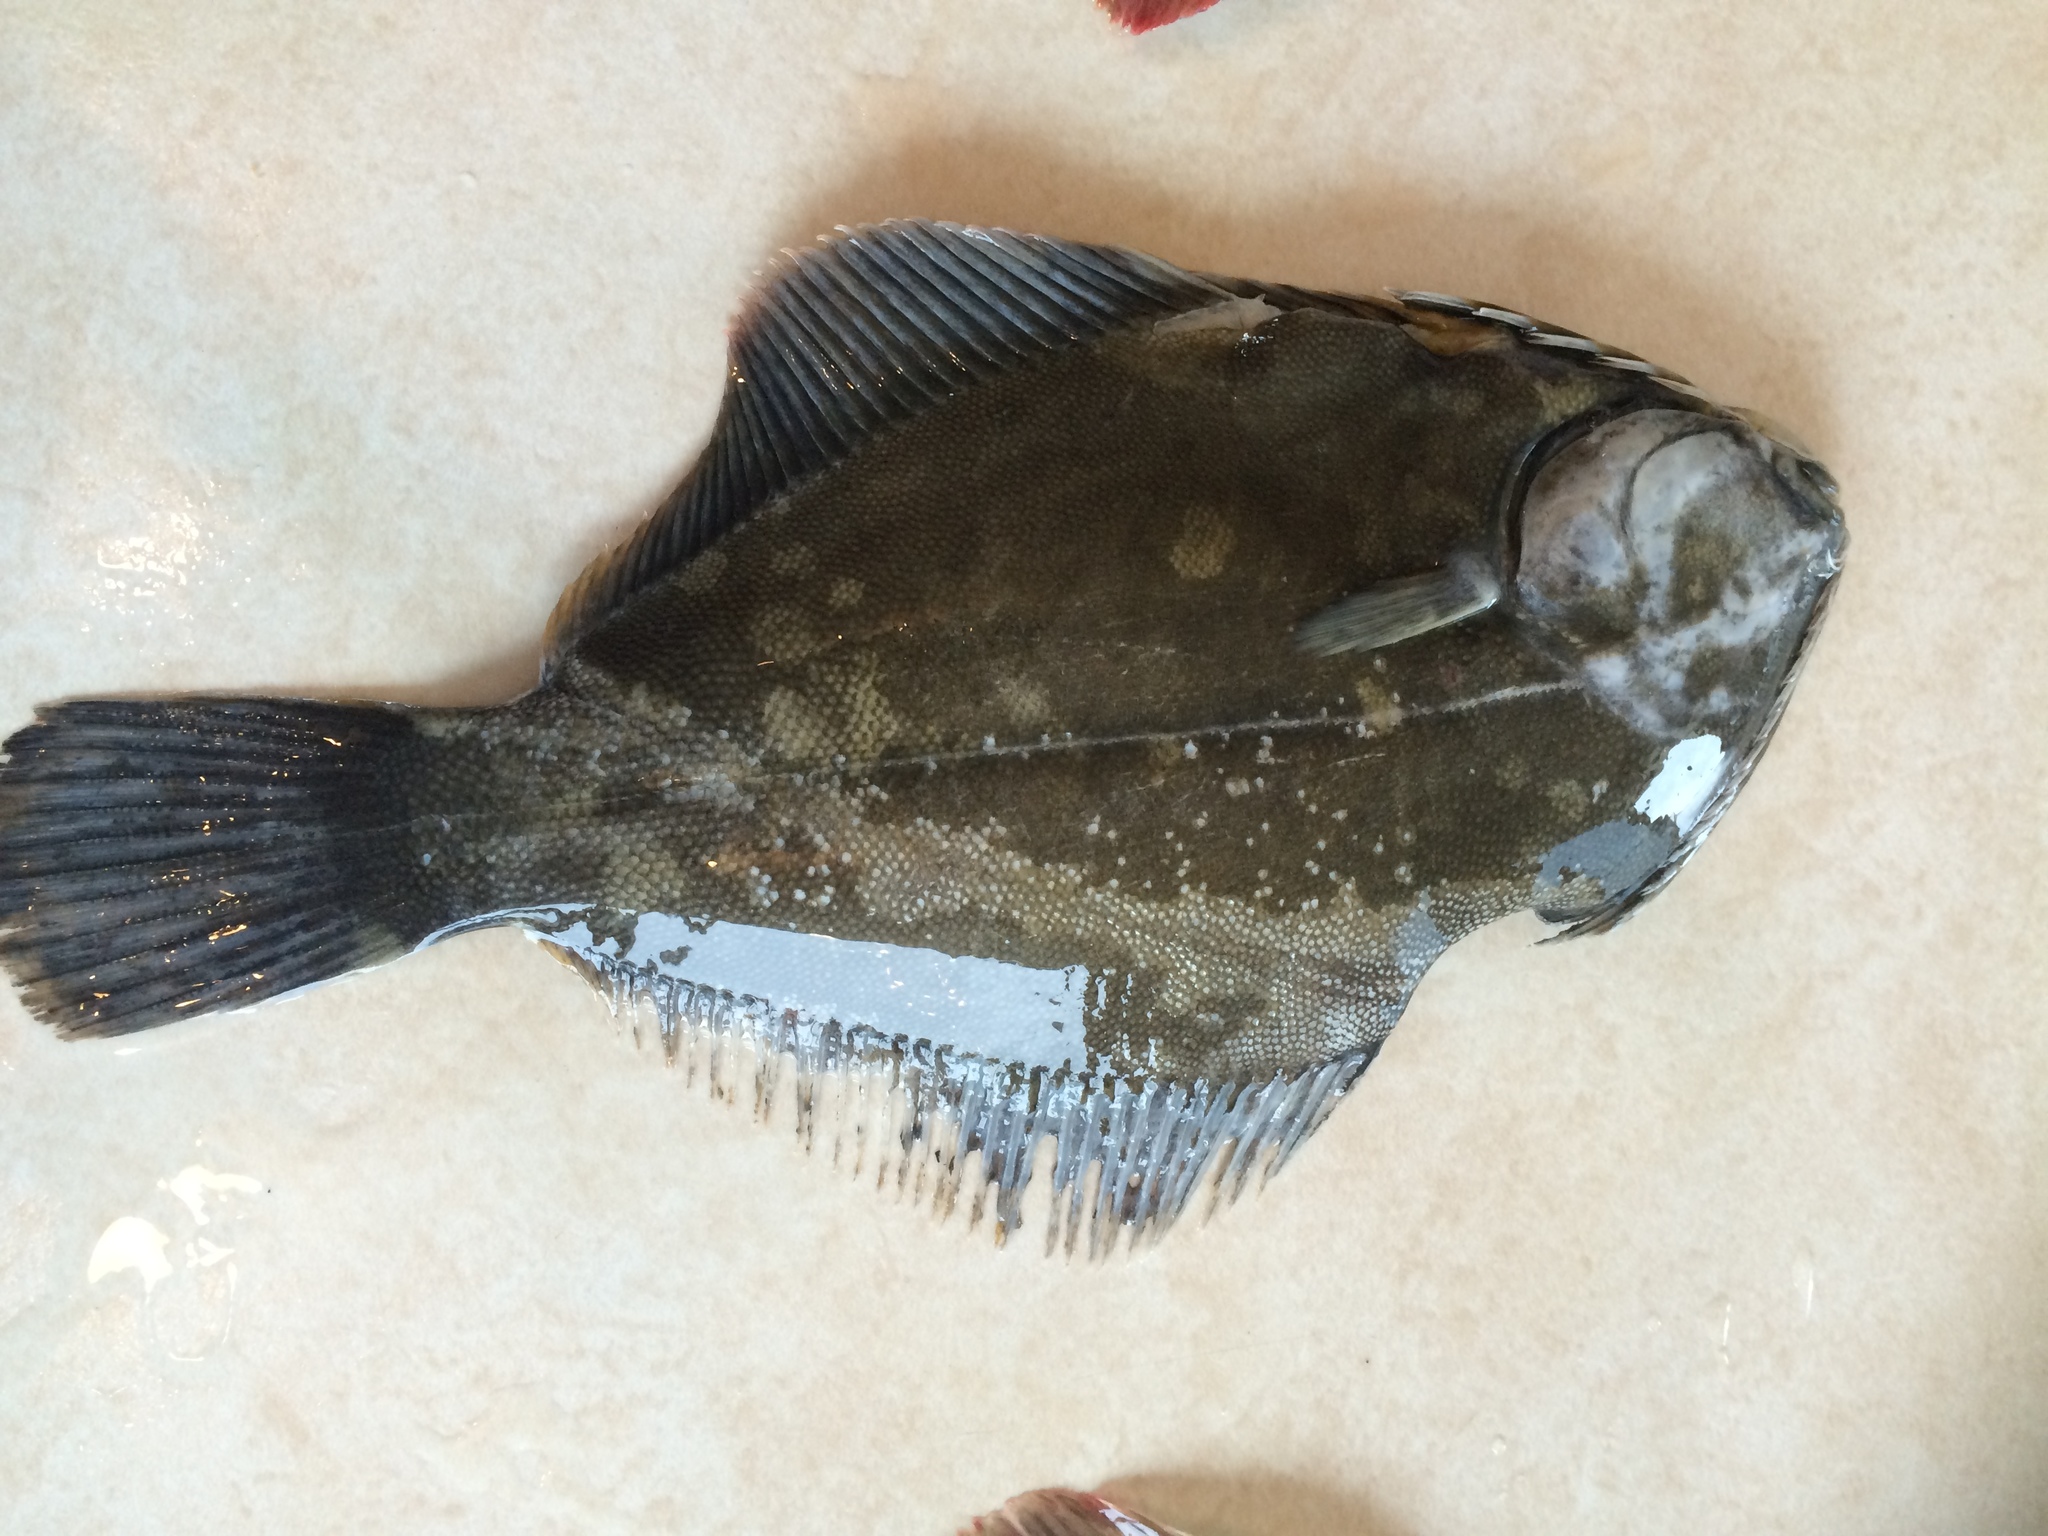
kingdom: Animalia
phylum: Chordata
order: Pleuronectiformes
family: Pleuronectidae
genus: Rhombosolea
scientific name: Rhombosolea retiaria
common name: Black flounder
